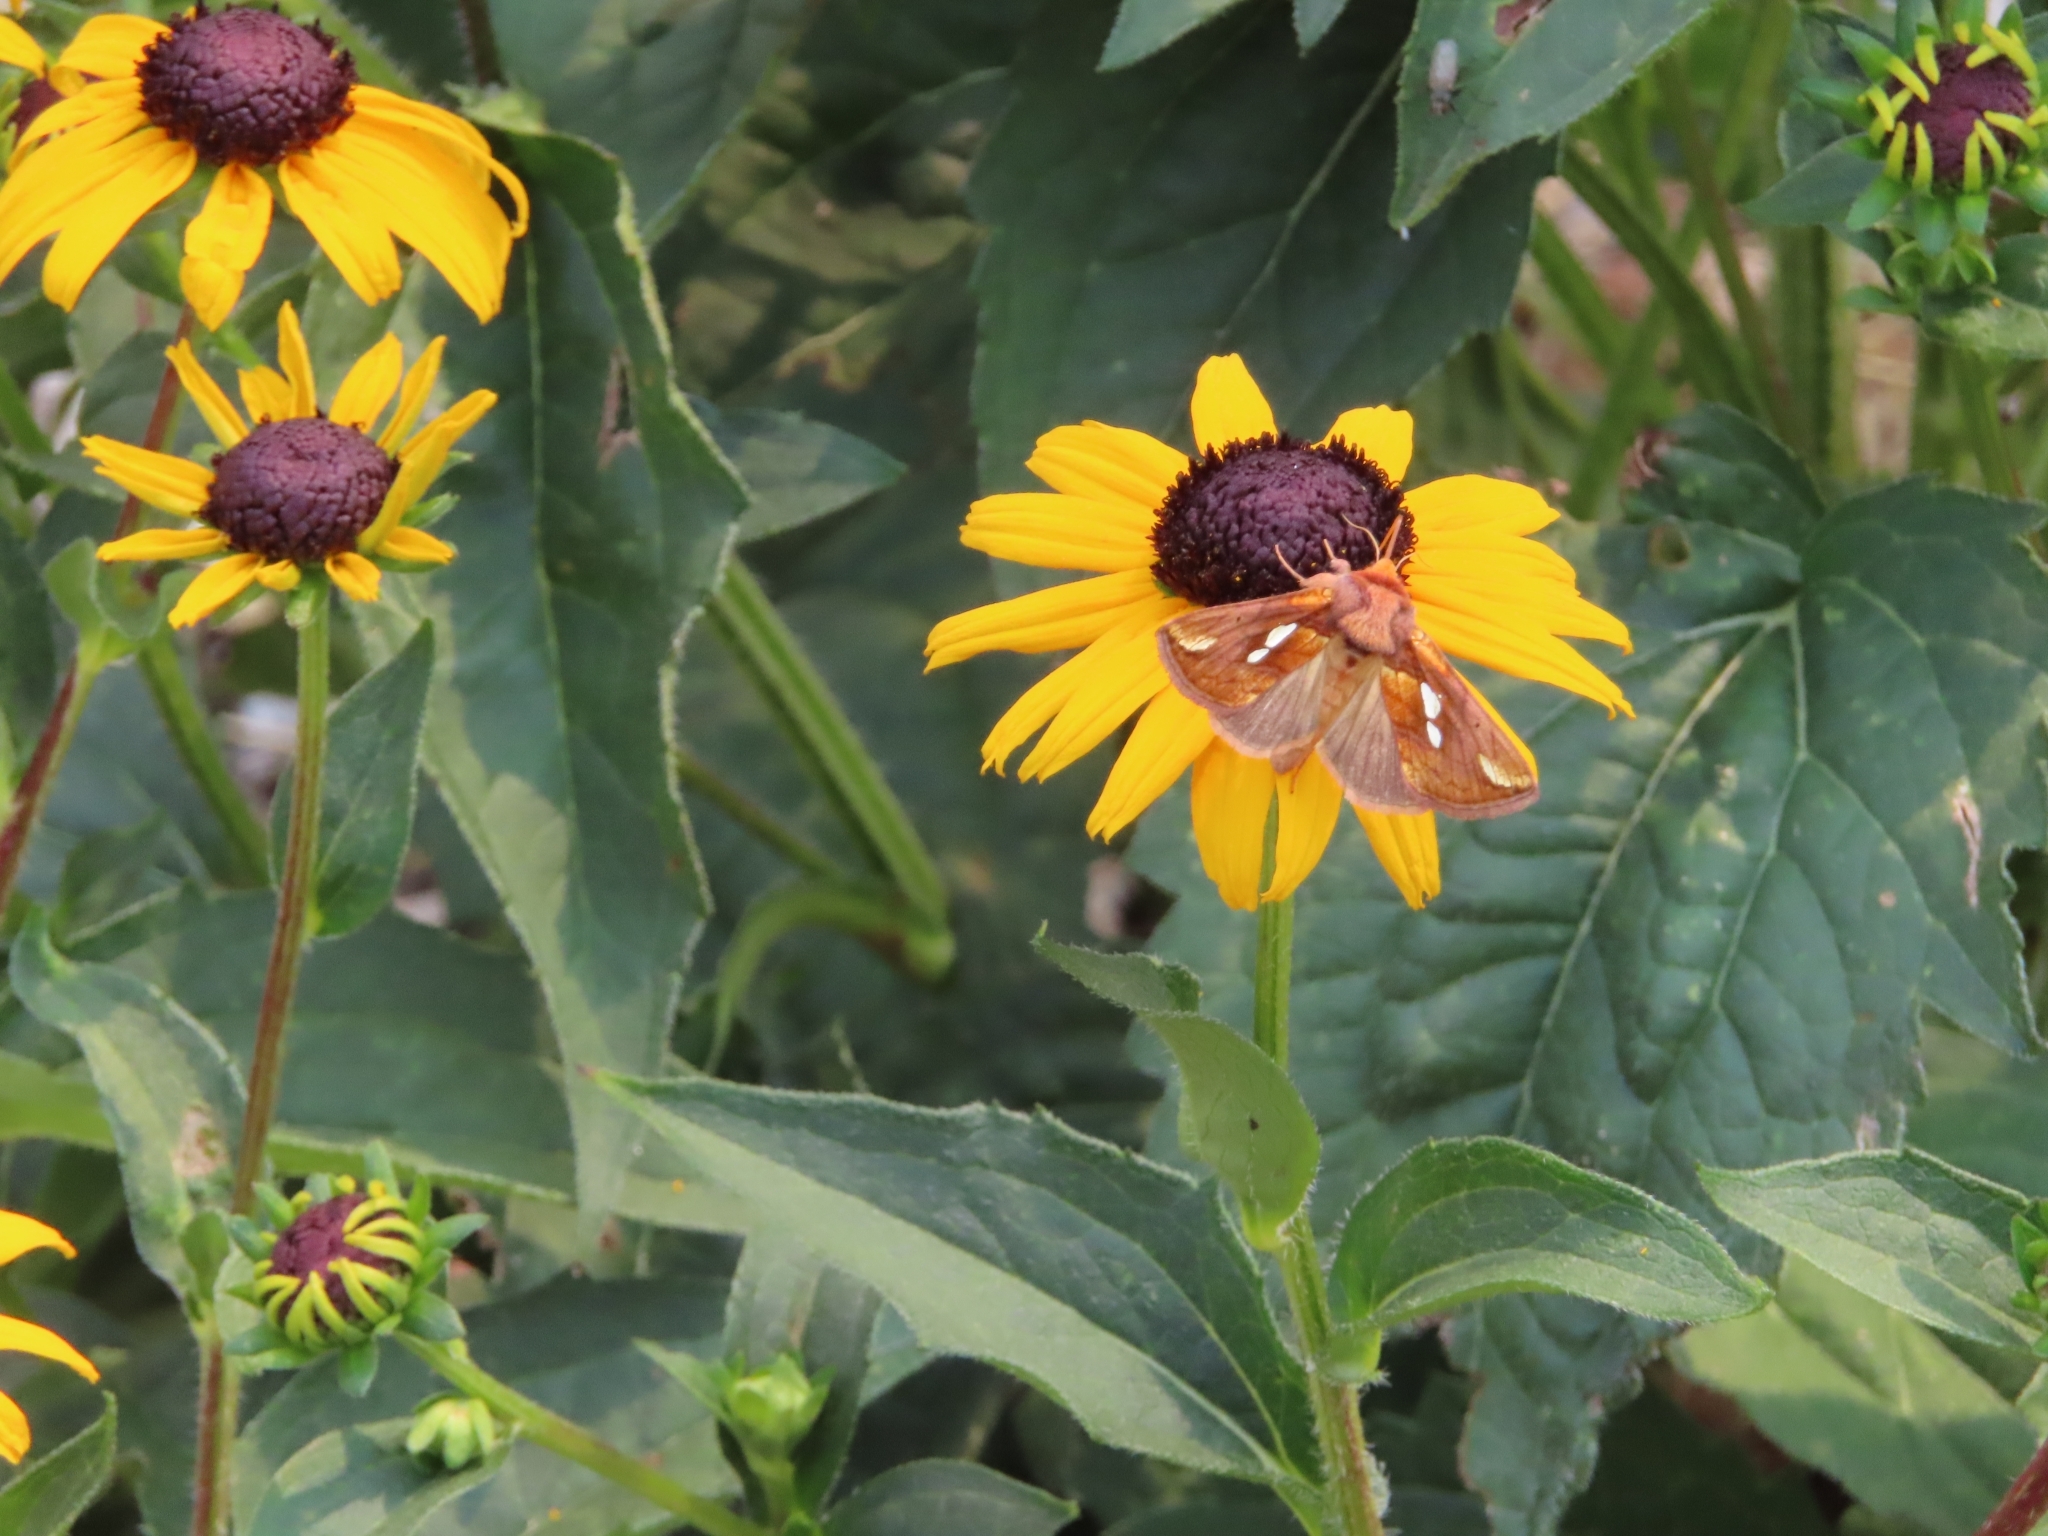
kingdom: Animalia
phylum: Arthropoda
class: Insecta
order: Lepidoptera
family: Noctuidae
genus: Plusia
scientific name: Plusia putnami
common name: Lempke's gold spot
